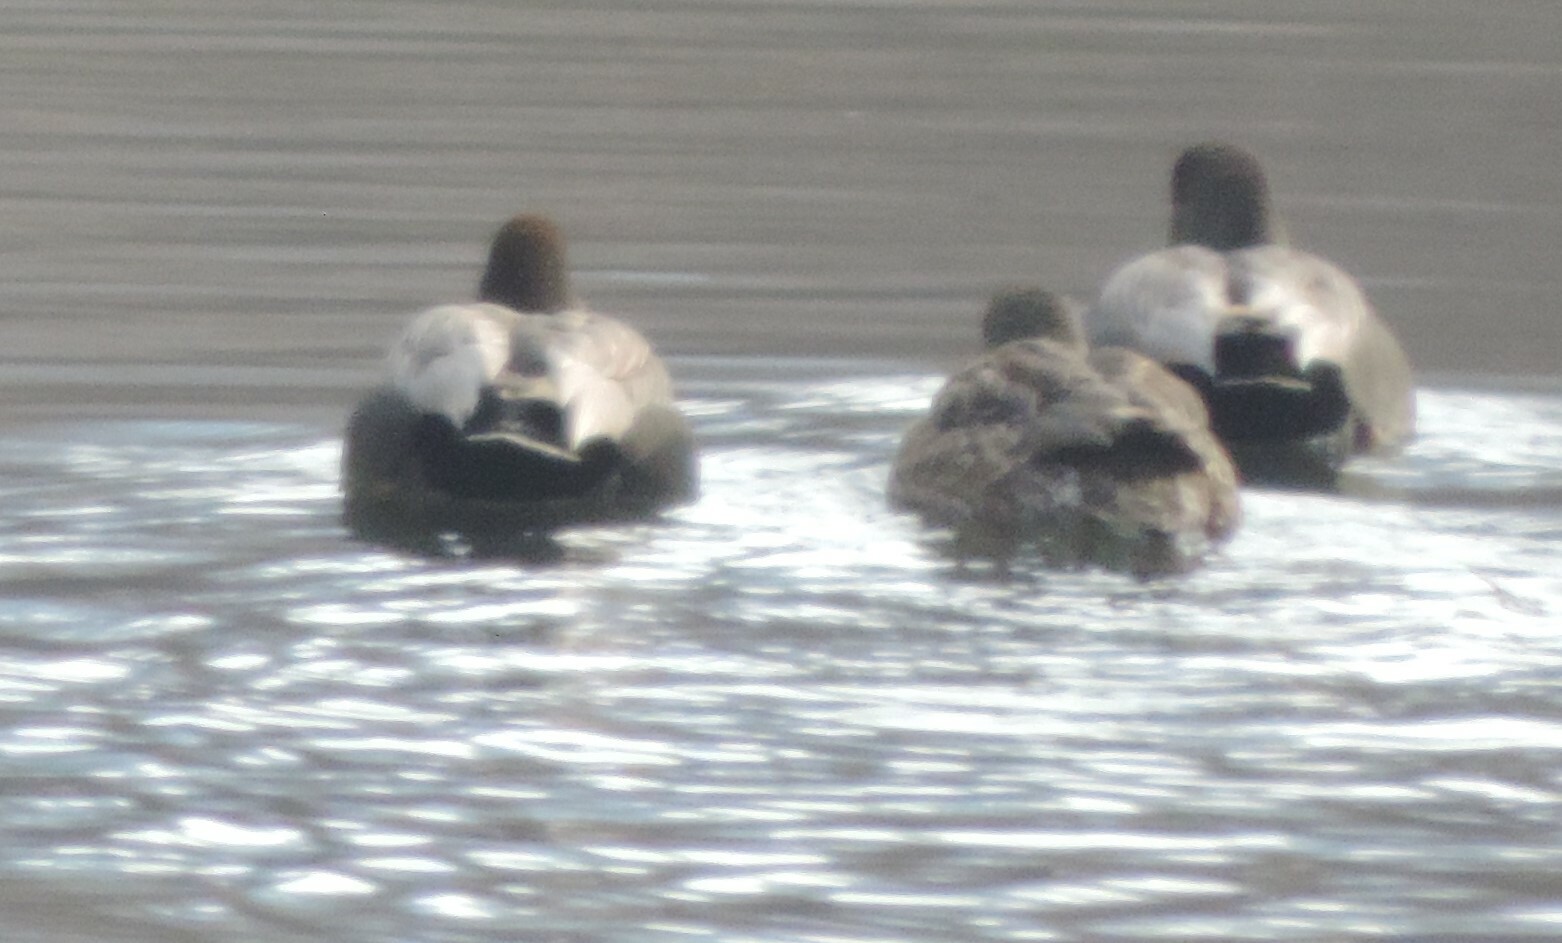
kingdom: Animalia
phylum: Chordata
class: Aves
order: Anseriformes
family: Anatidae
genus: Mareca
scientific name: Mareca strepera
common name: Gadwall
